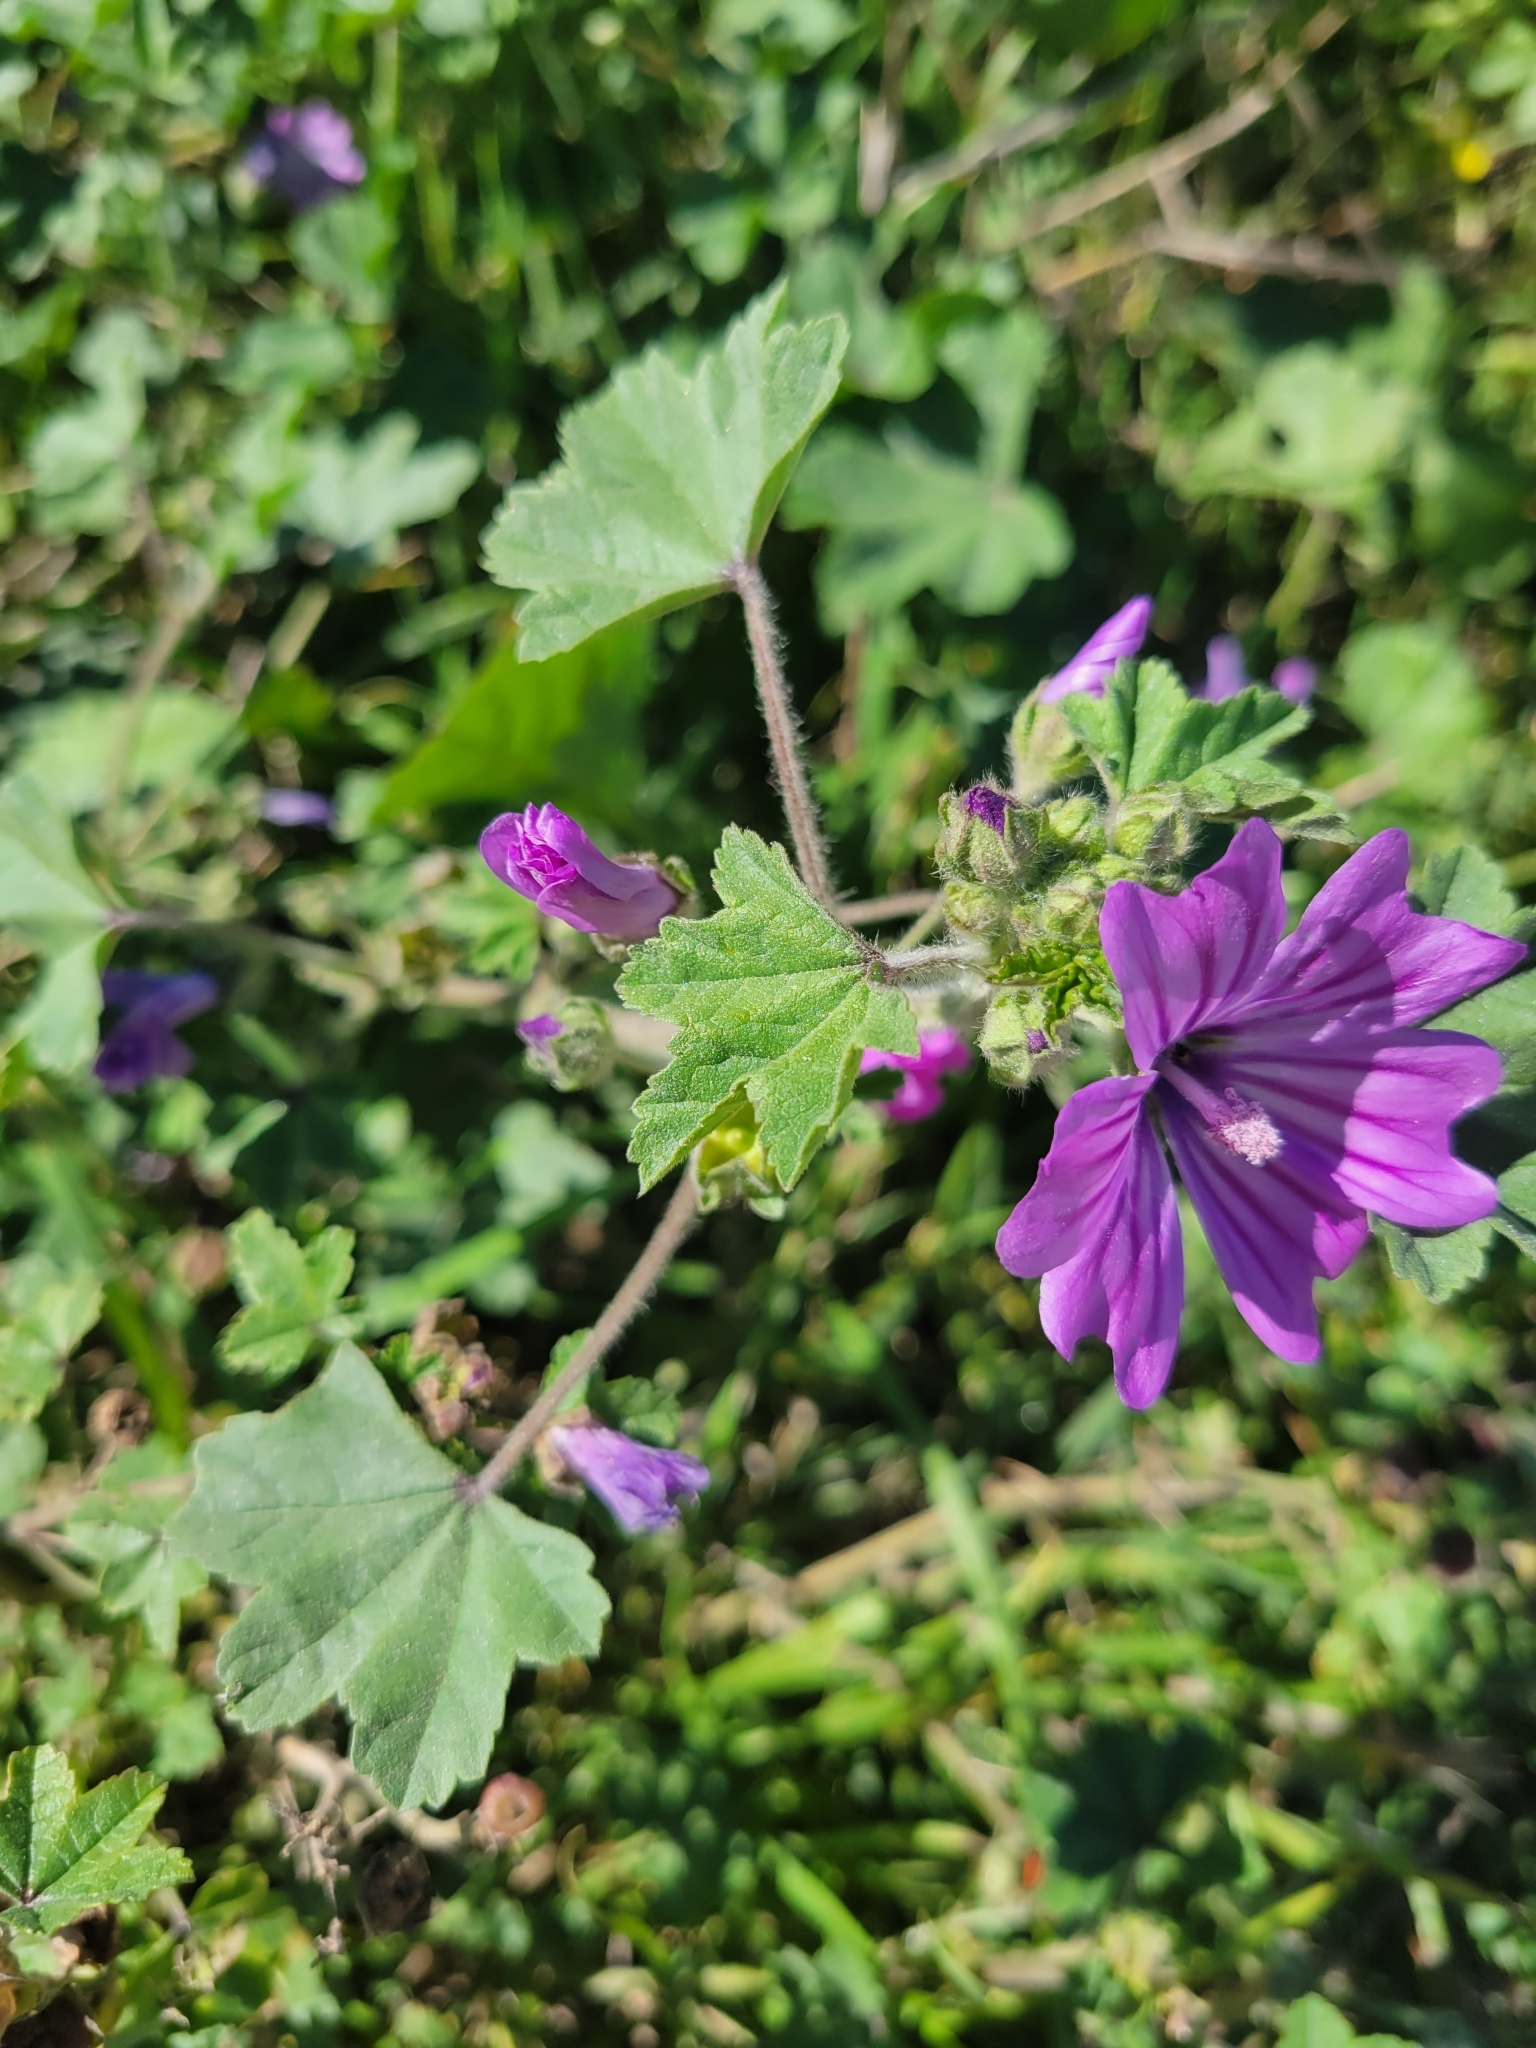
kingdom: Plantae
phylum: Tracheophyta
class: Magnoliopsida
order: Malvales
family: Malvaceae
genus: Malva
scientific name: Malva sylvestris
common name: Common mallow
